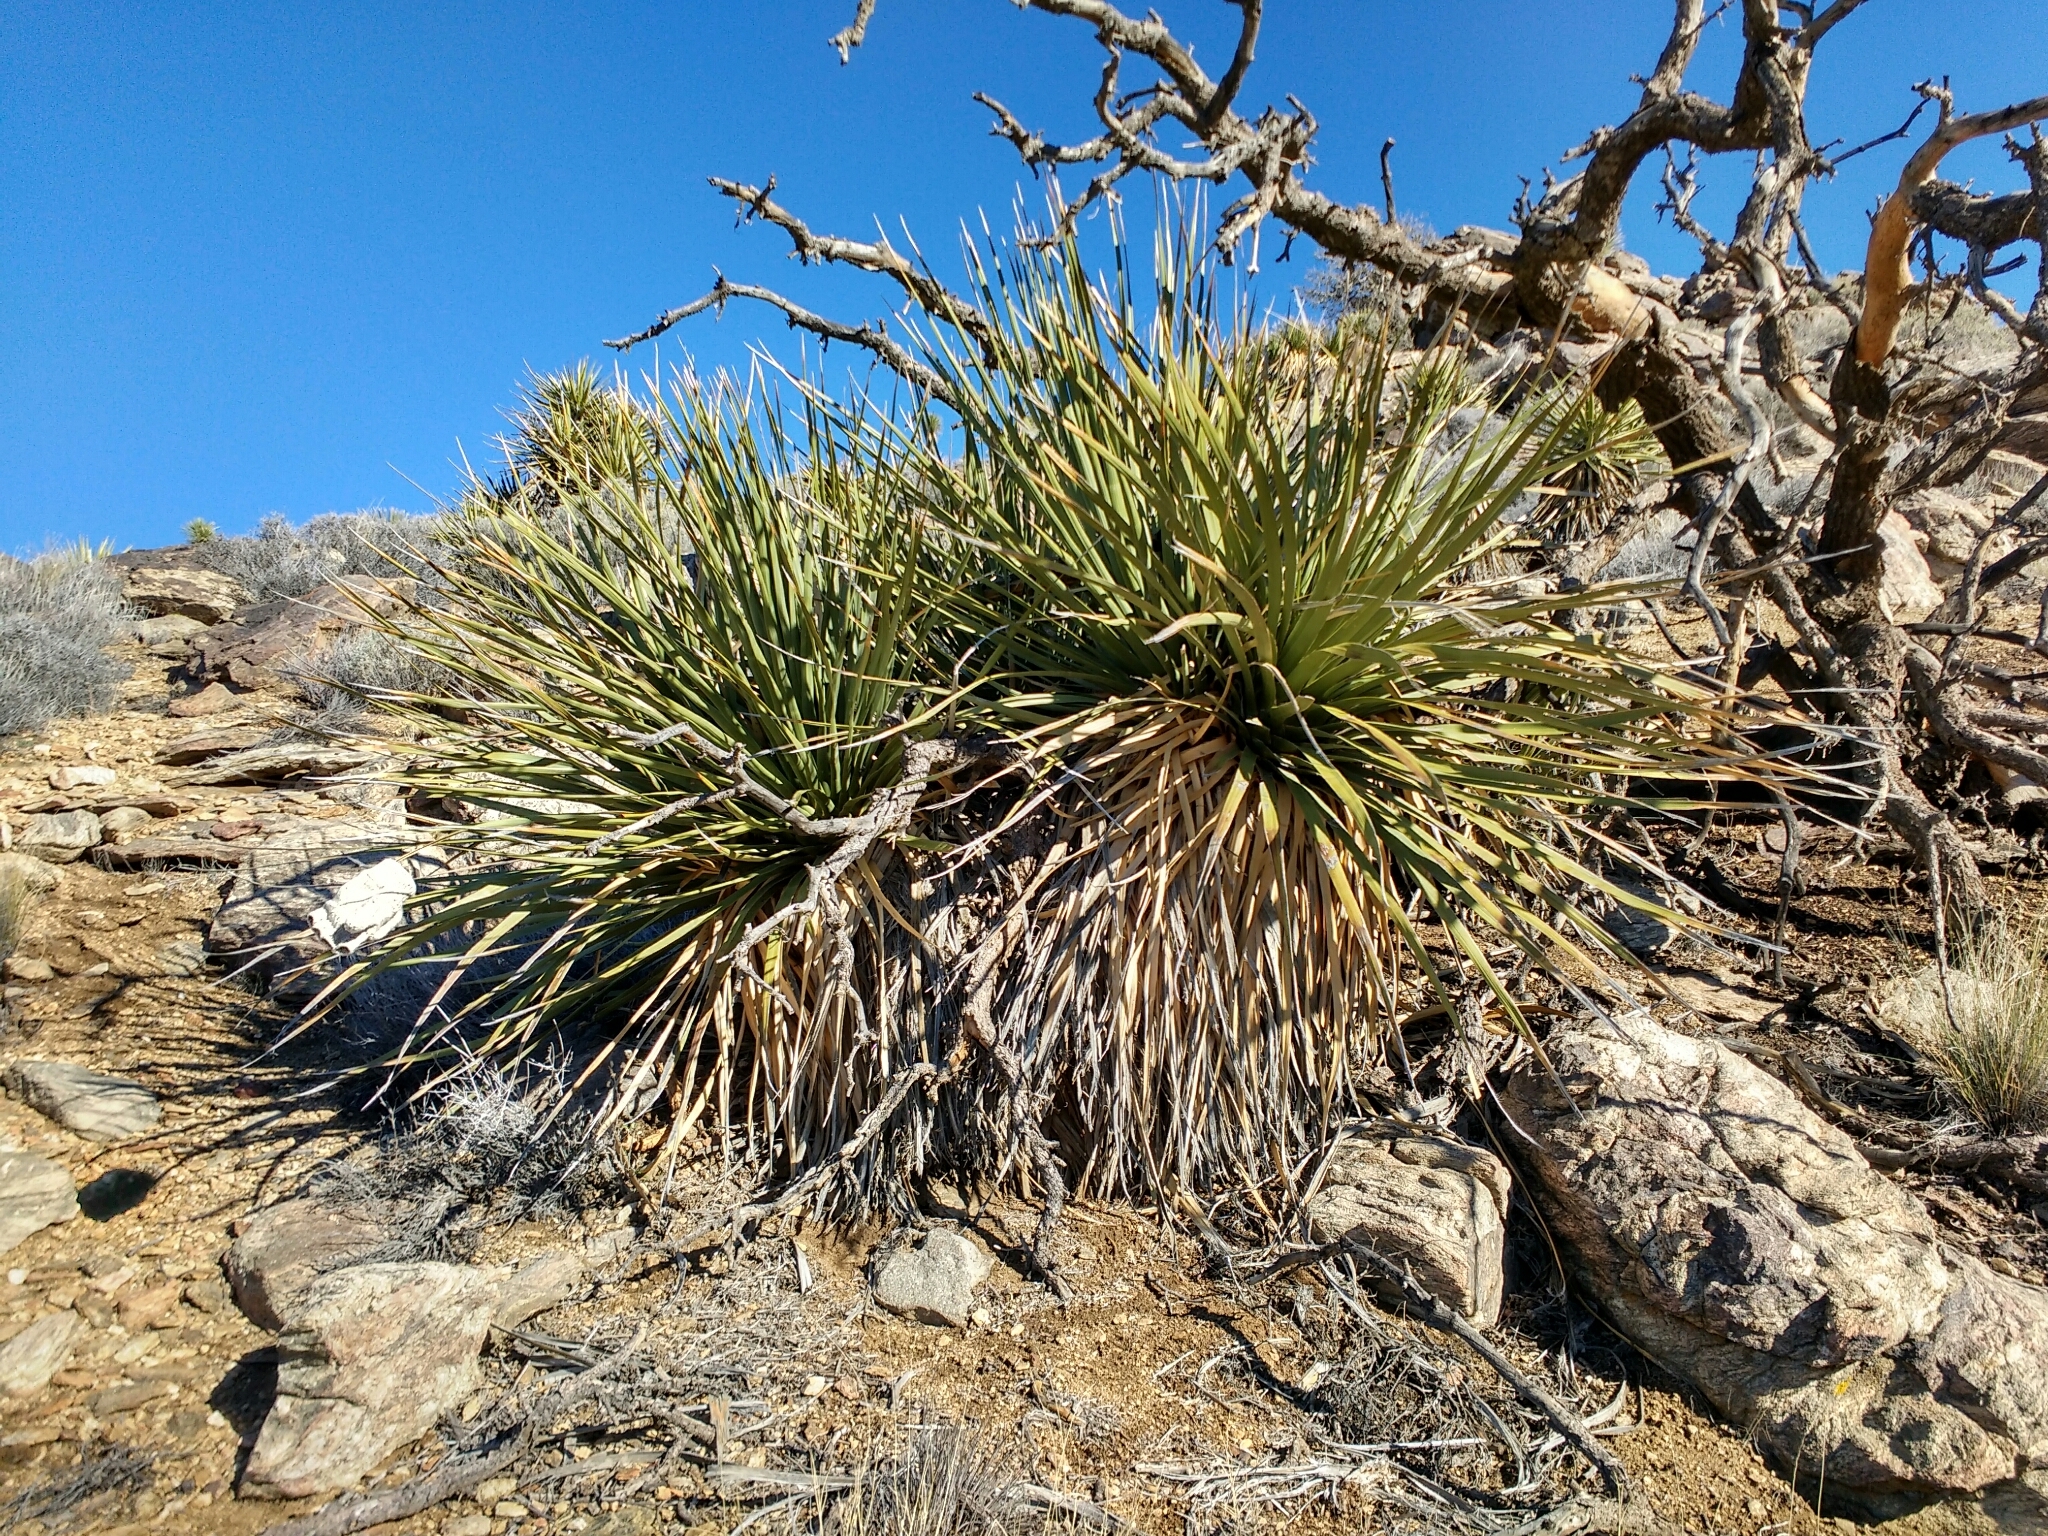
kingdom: Plantae
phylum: Tracheophyta
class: Liliopsida
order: Asparagales
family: Asparagaceae
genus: Nolina
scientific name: Nolina parryi
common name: Parry nolina
